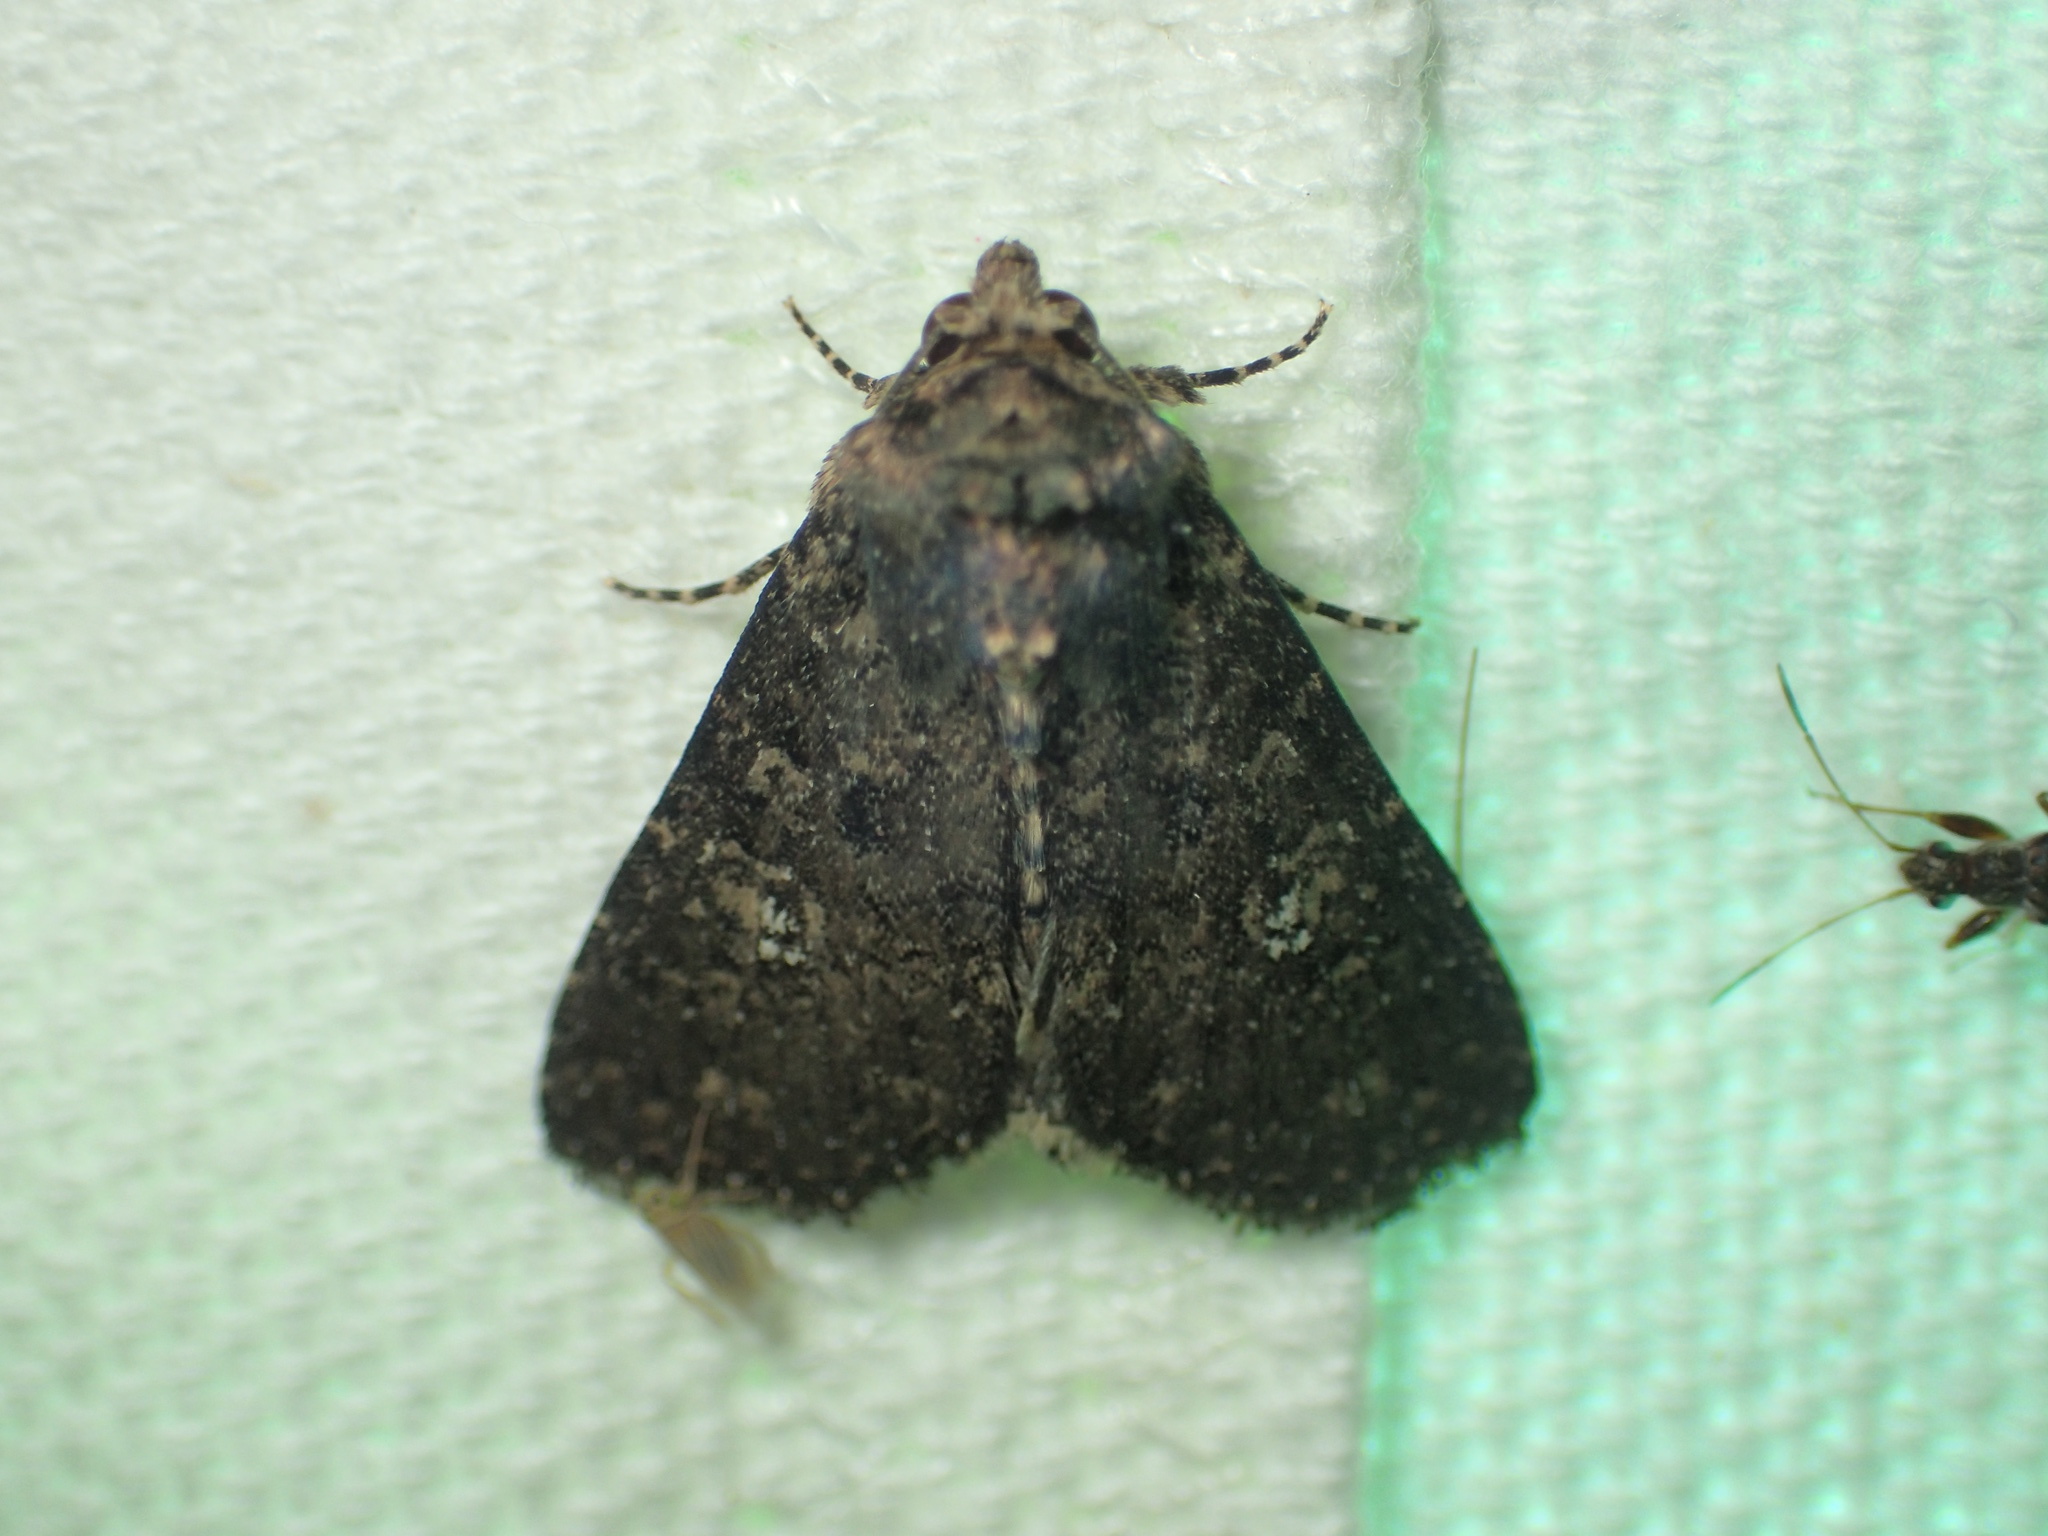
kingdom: Animalia
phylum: Arthropoda
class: Insecta
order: Lepidoptera
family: Noctuidae
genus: Condica
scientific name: Condica vecors
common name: Dusky groundling
